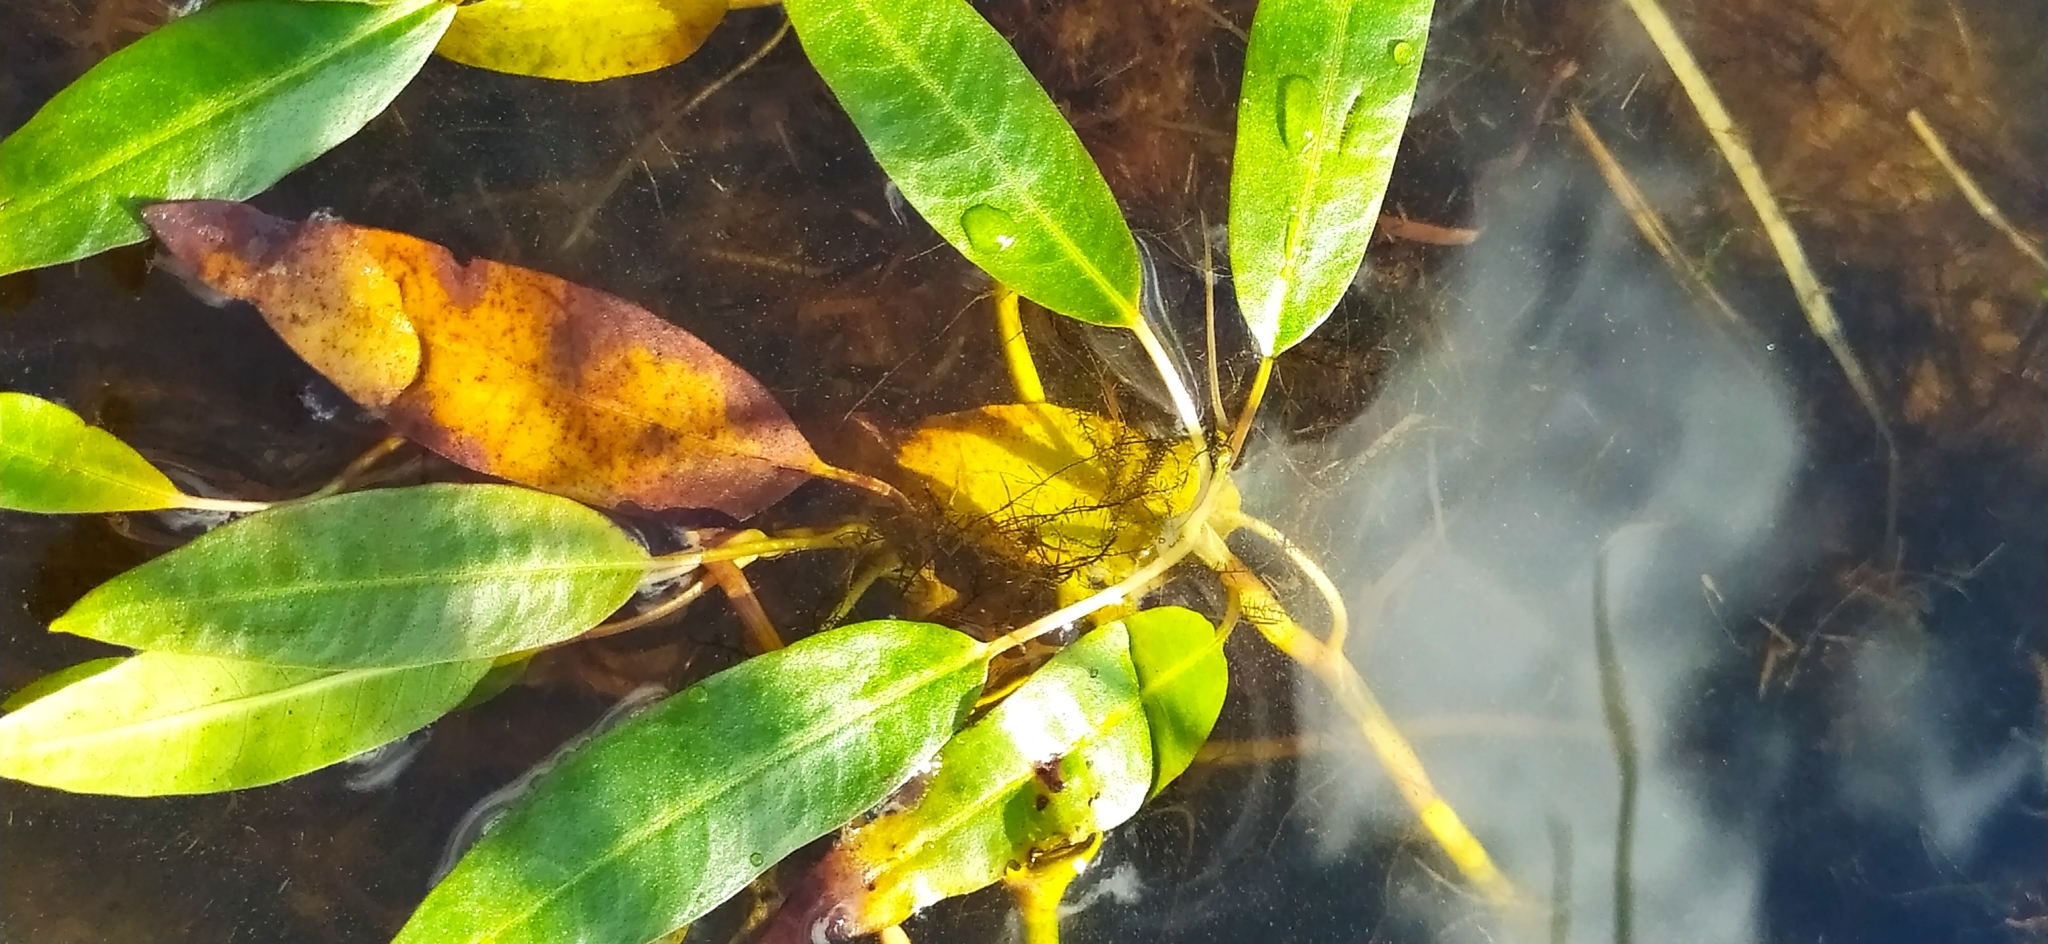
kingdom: Plantae
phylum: Tracheophyta
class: Magnoliopsida
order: Caryophyllales
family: Polygonaceae
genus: Persicaria
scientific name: Persicaria amphibia
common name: Amphibious bistort
